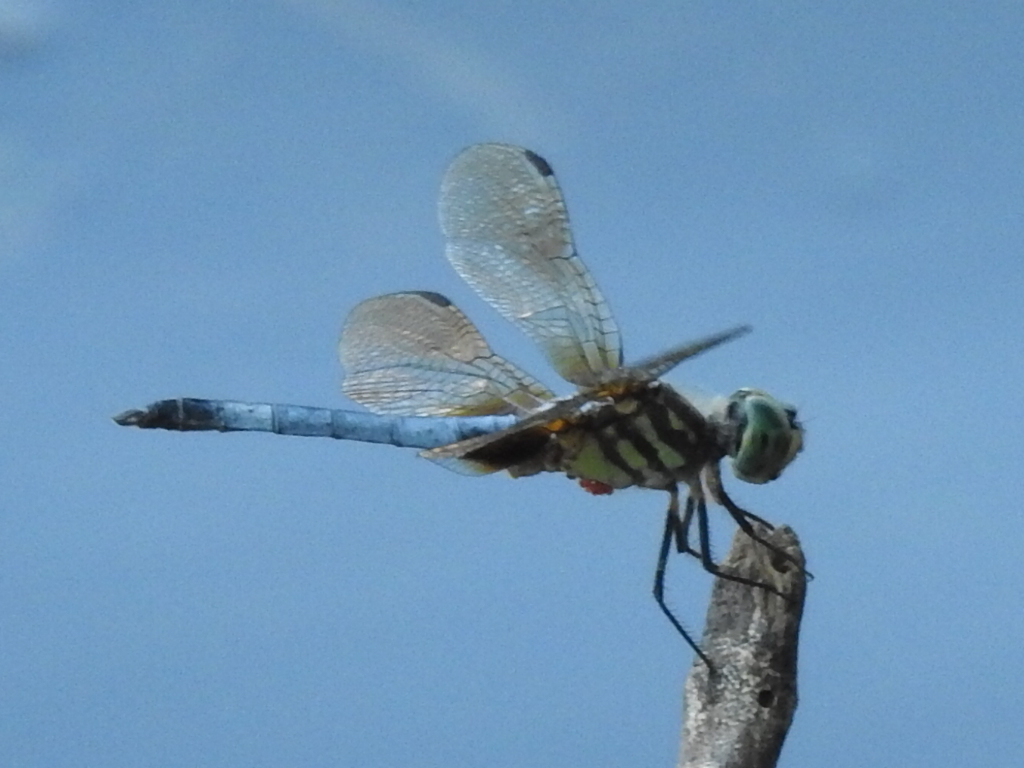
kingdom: Animalia
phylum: Arthropoda
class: Insecta
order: Odonata
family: Libellulidae
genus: Pachydiplax
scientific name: Pachydiplax longipennis
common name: Blue dasher
